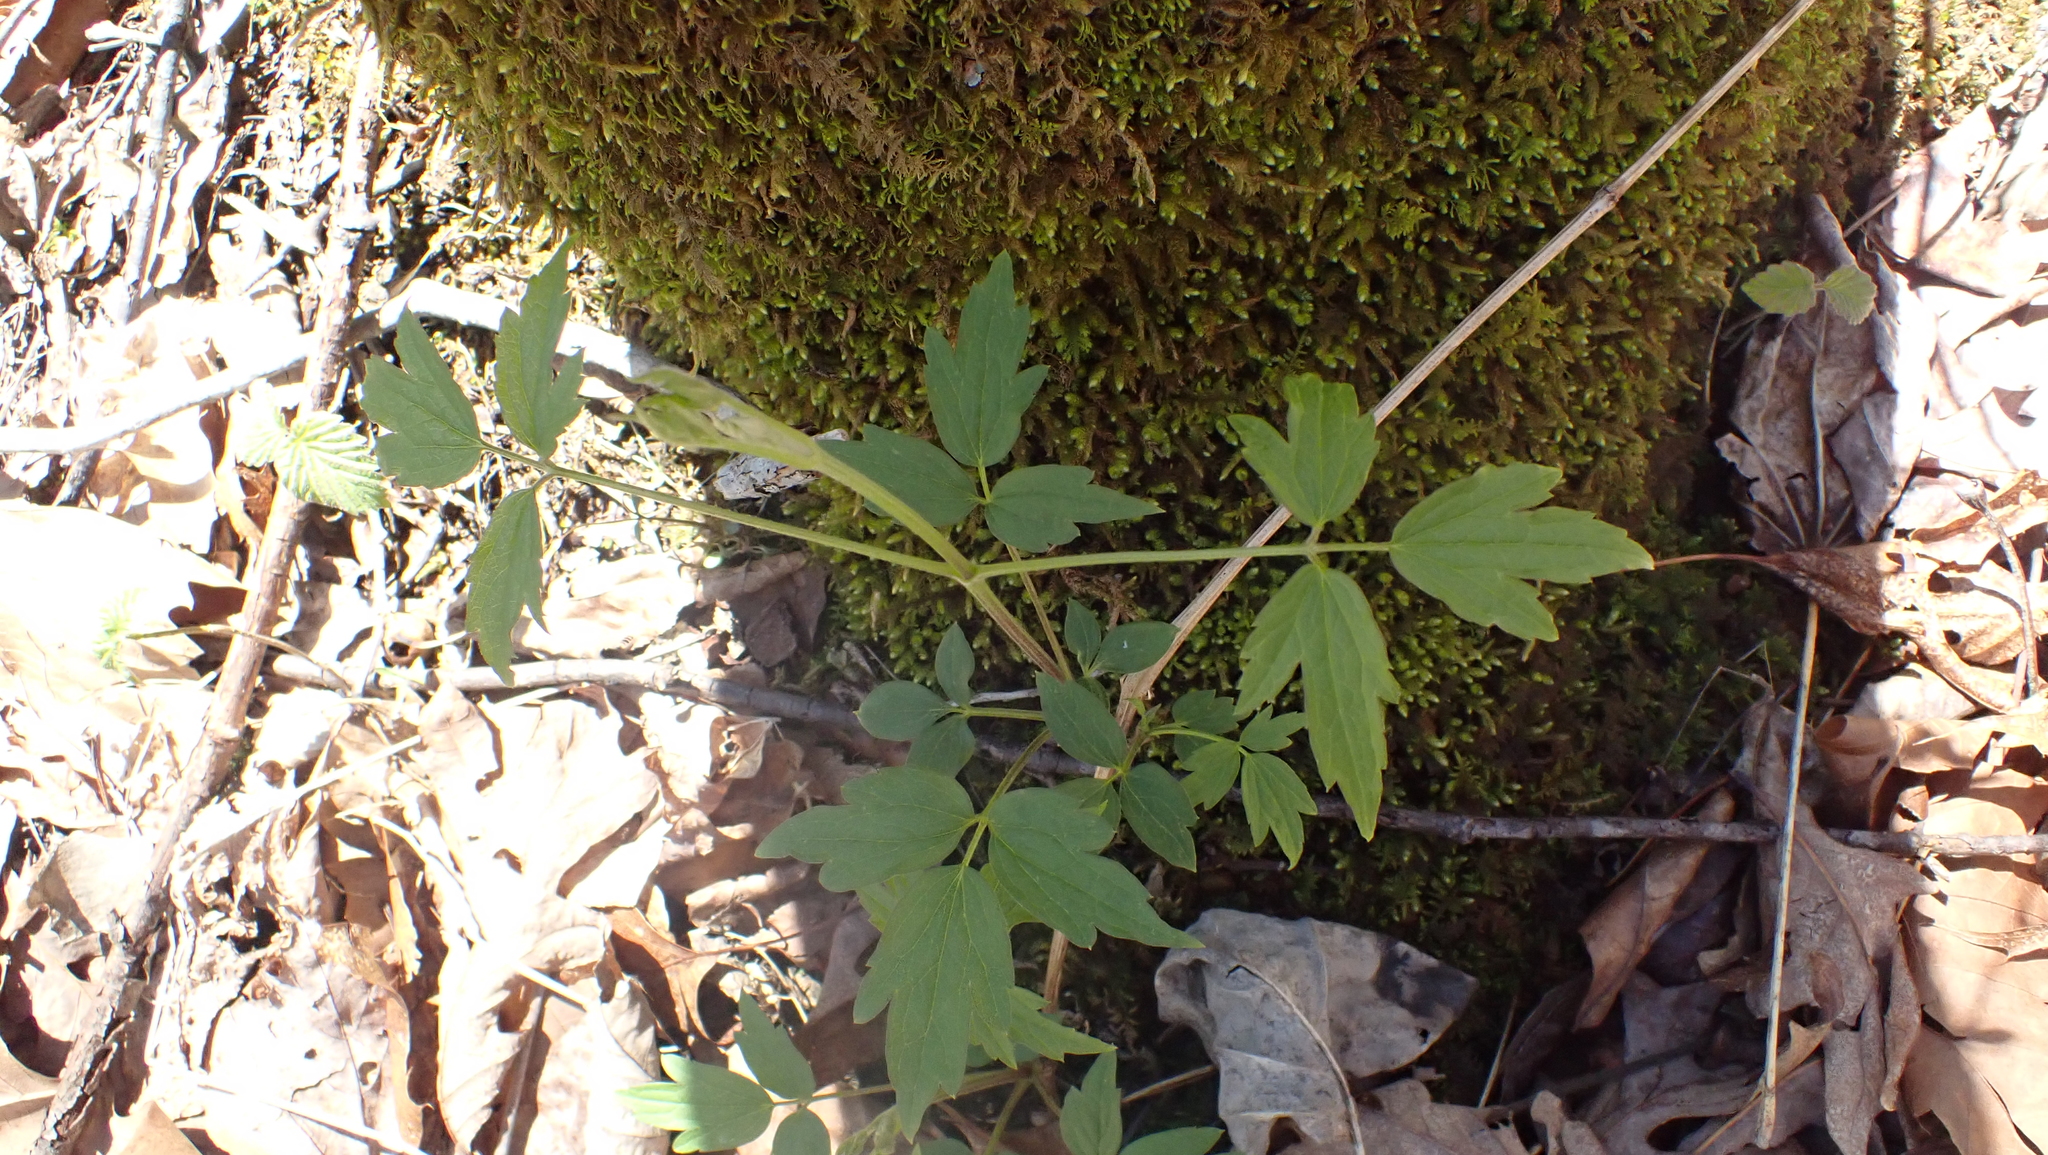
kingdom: Plantae
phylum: Tracheophyta
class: Magnoliopsida
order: Ranunculales
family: Ranunculaceae
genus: Clematis
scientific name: Clematis virginiana
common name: Virgin's-bower
